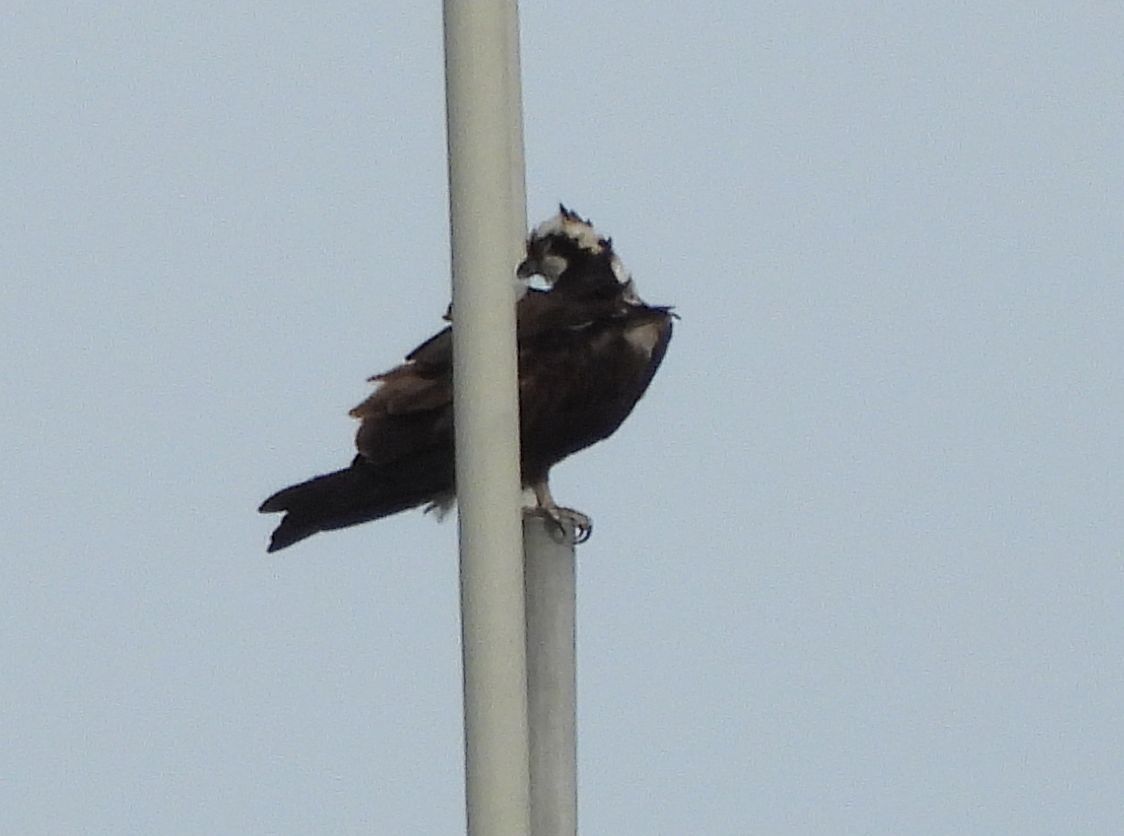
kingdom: Animalia
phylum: Chordata
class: Aves
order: Accipitriformes
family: Pandionidae
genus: Pandion
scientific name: Pandion haliaetus
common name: Osprey
